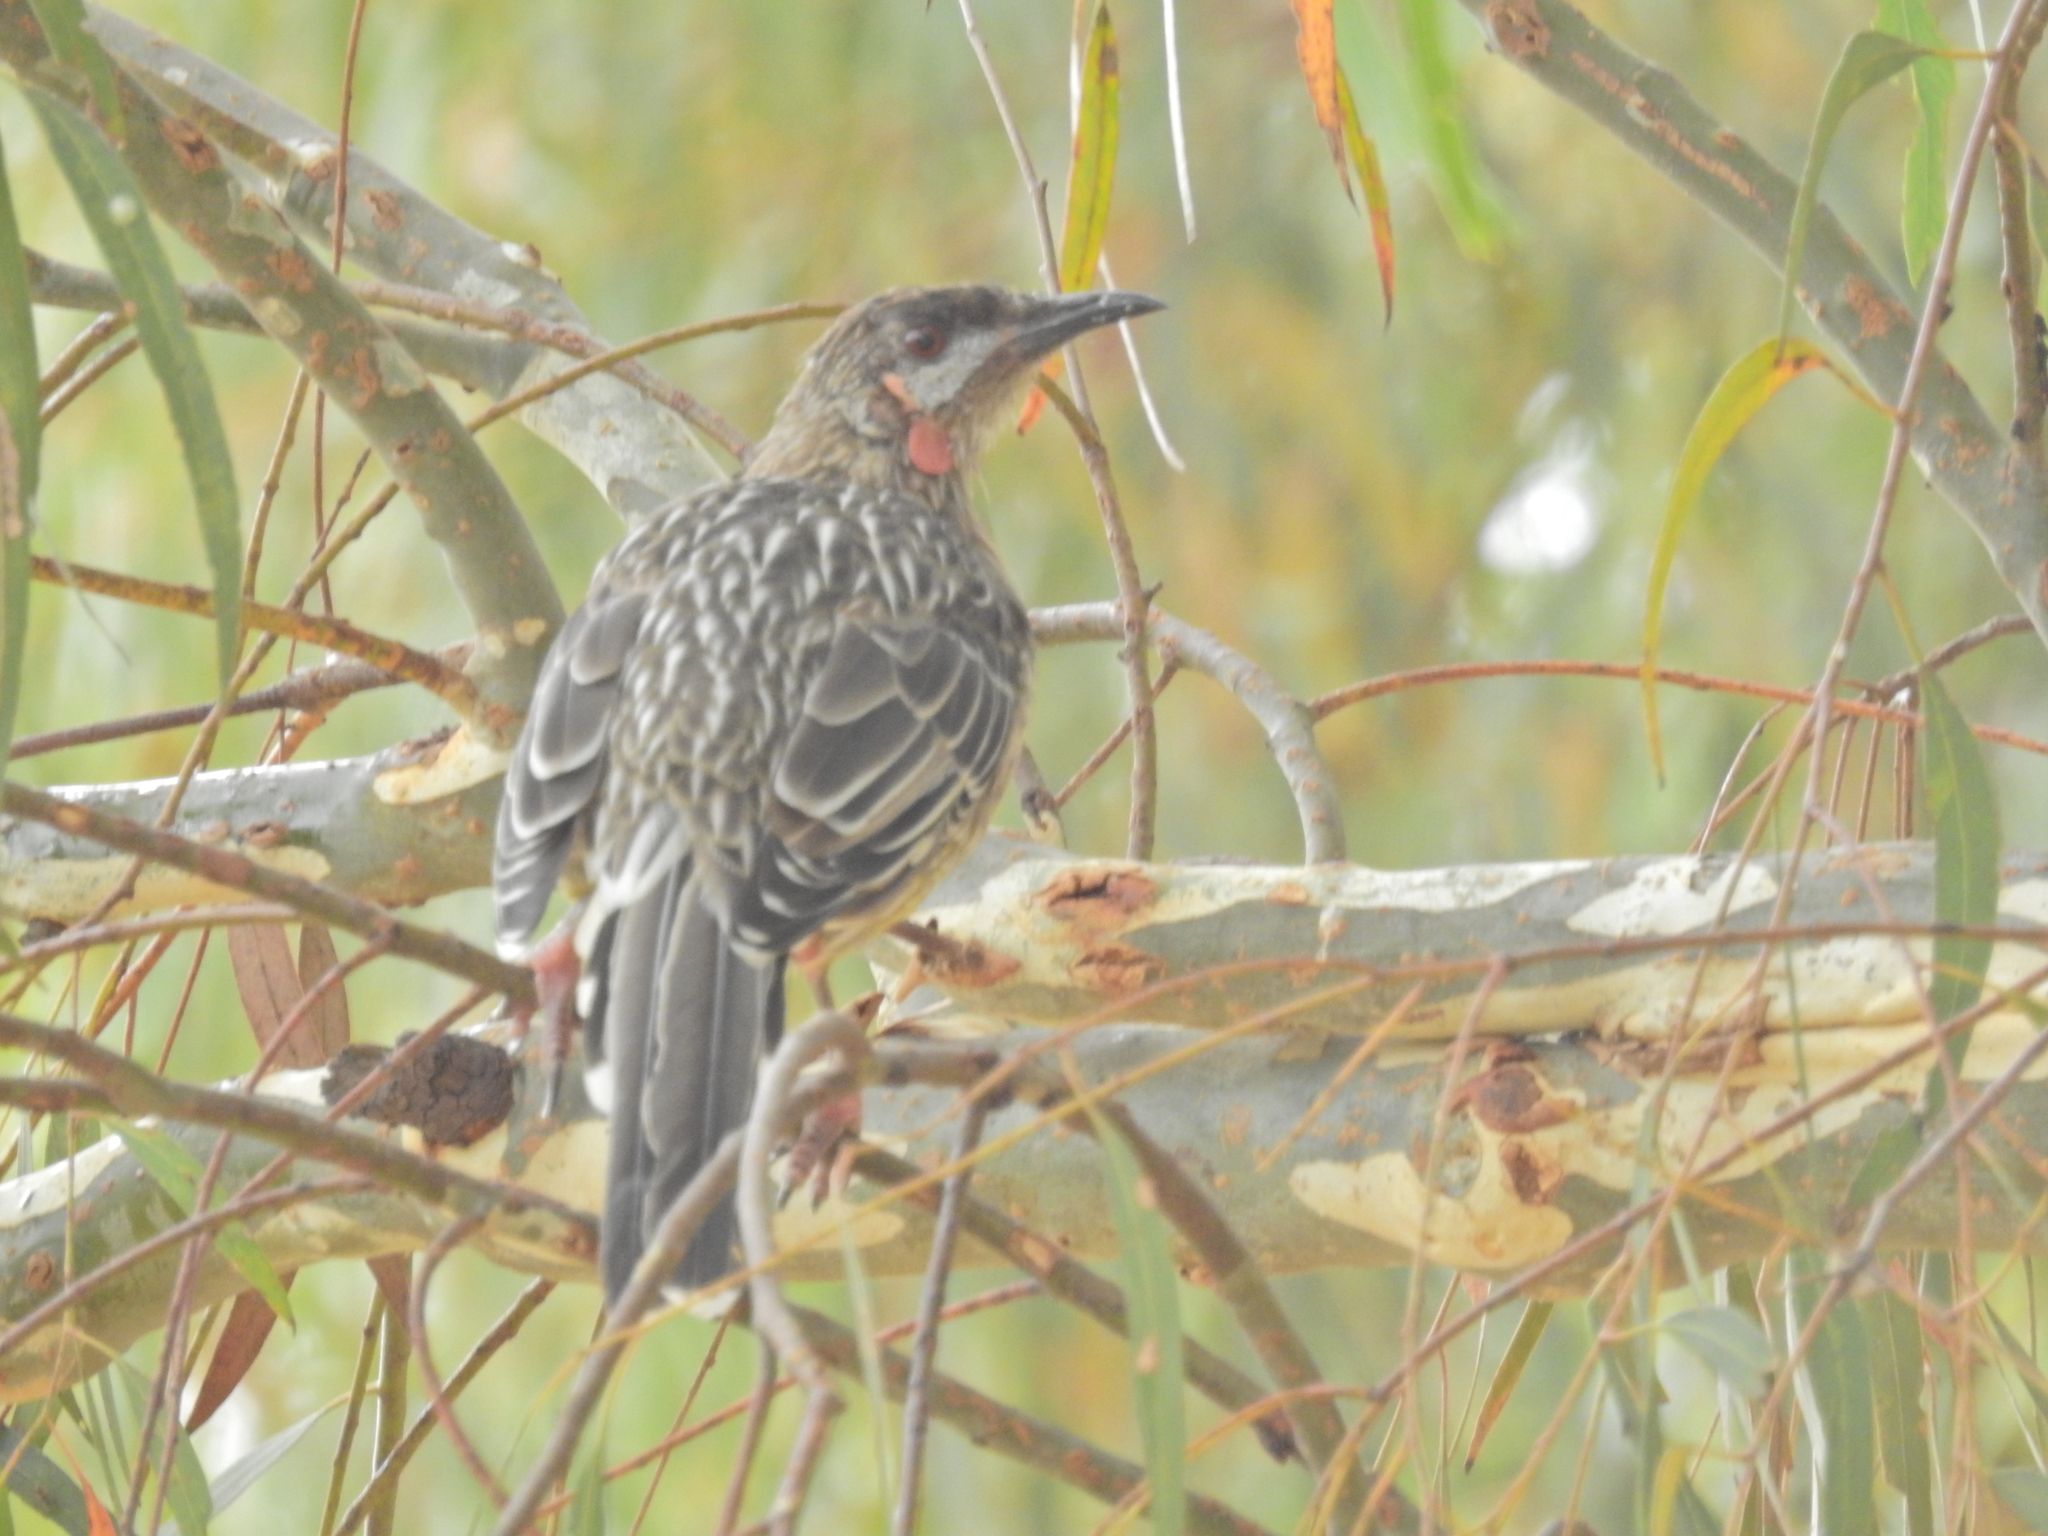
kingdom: Animalia
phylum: Chordata
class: Aves
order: Passeriformes
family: Meliphagidae
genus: Anthochaera
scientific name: Anthochaera carunculata
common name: Red wattlebird
